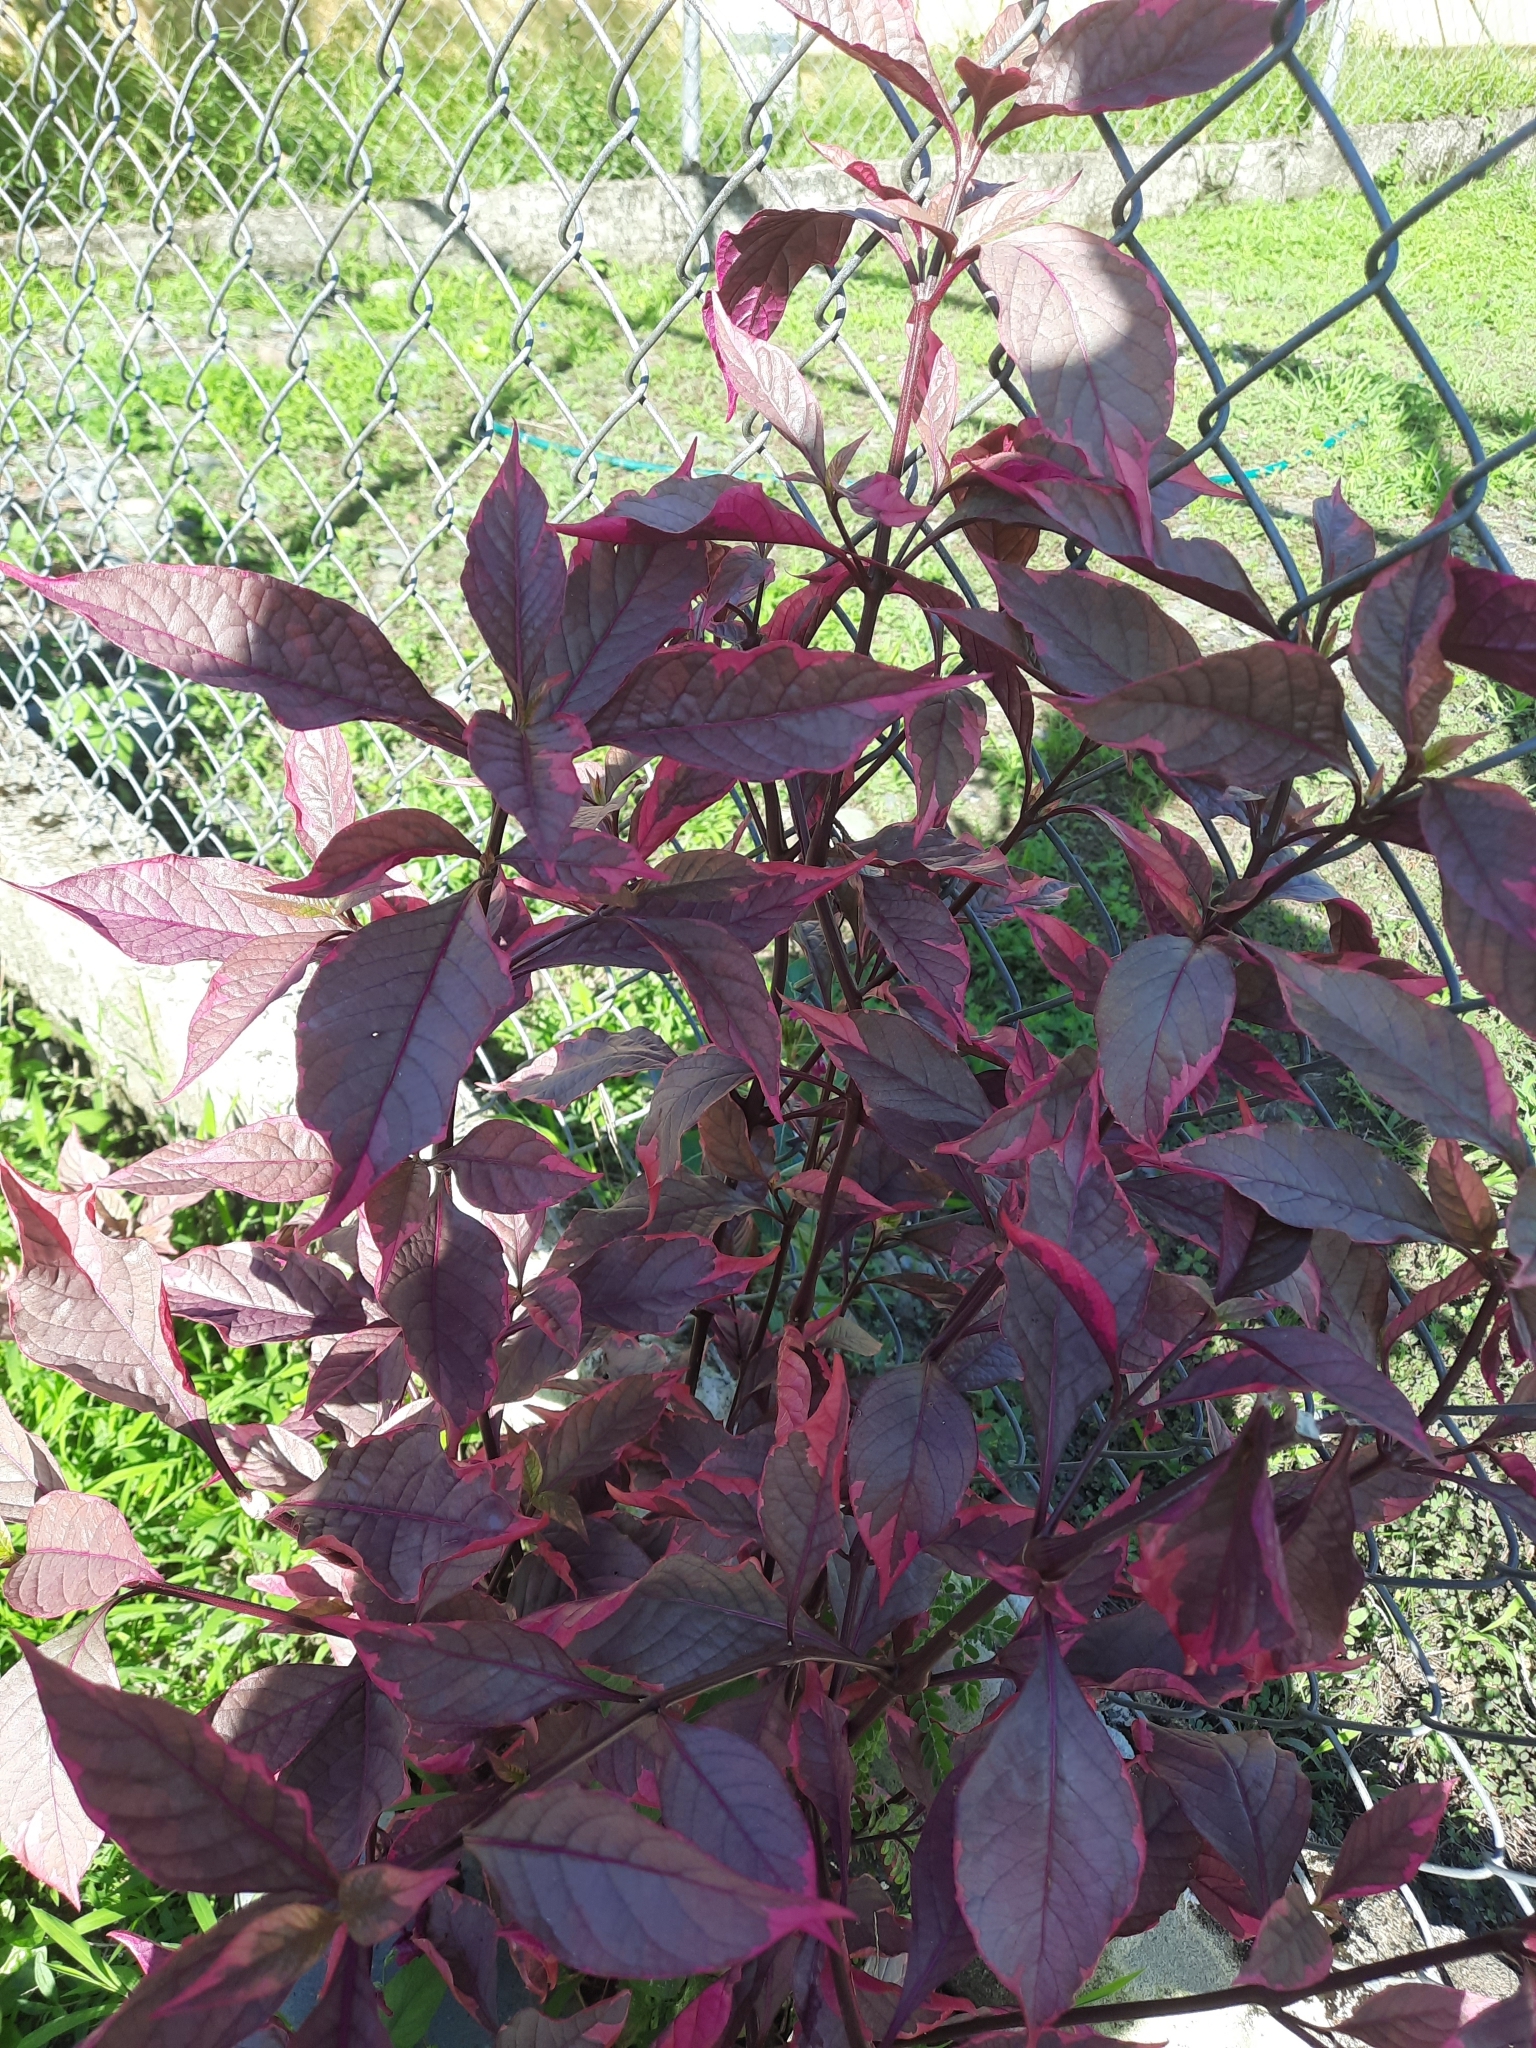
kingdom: Plantae
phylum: Tracheophyta
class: Magnoliopsida
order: Caryophyllales
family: Amaranthaceae
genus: Alternanthera
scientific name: Alternanthera brasiliana
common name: Brazilian joyweed
